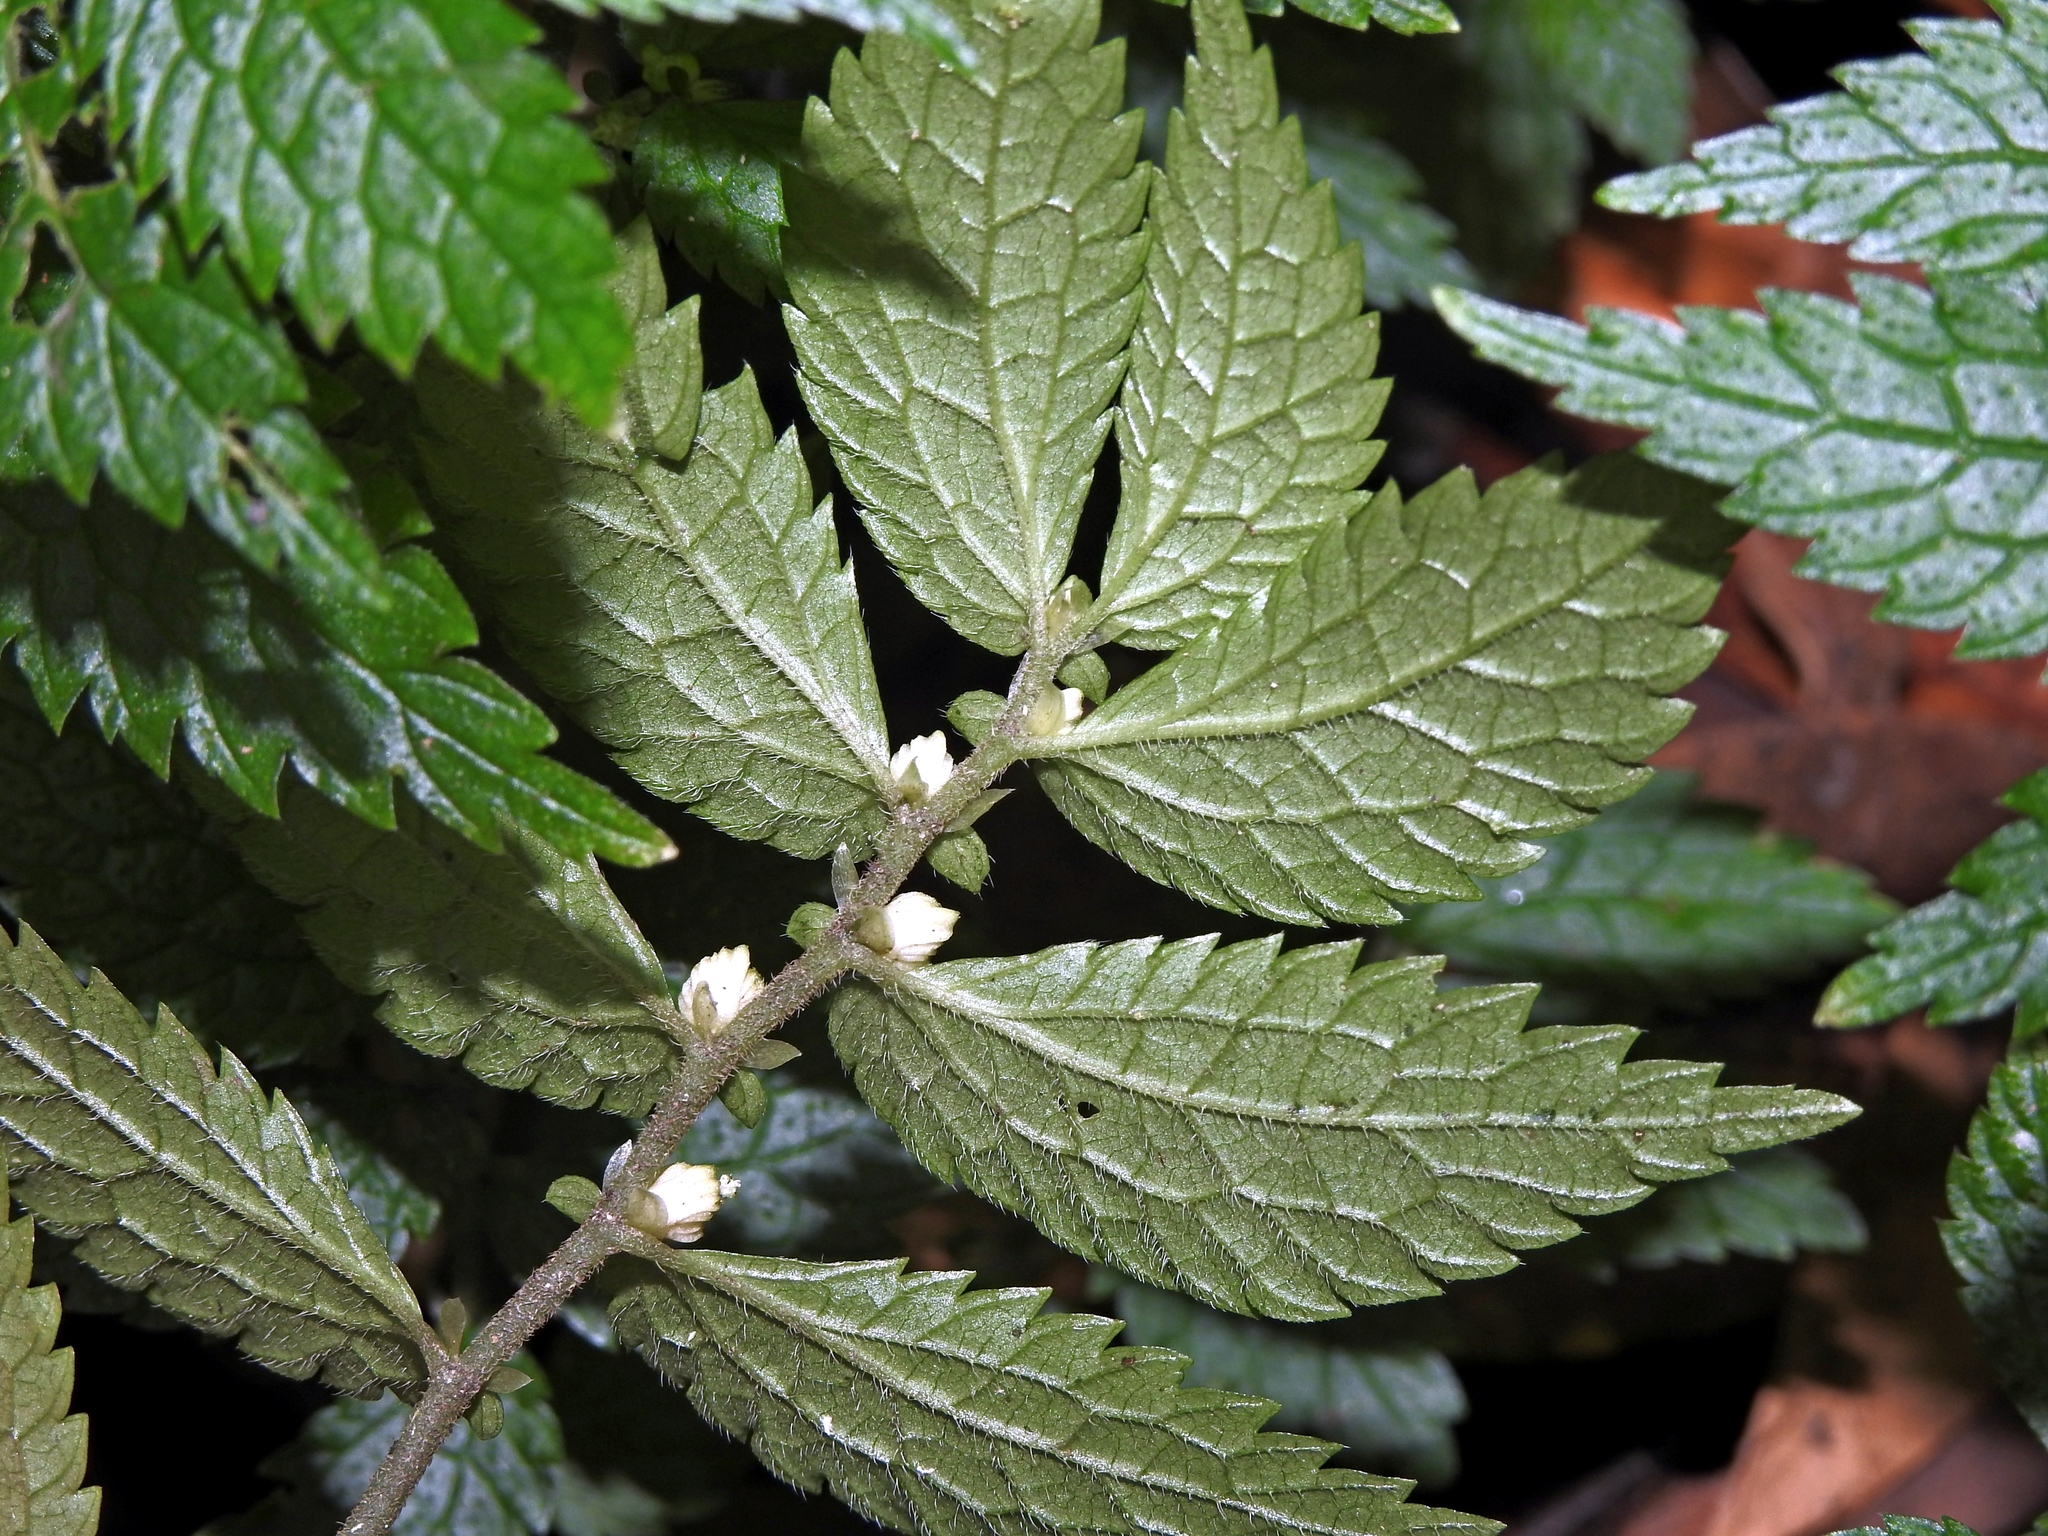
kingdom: Plantae
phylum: Tracheophyta
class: Magnoliopsida
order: Rosales
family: Urticaceae
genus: Elatostema
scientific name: Elatostema parvum
